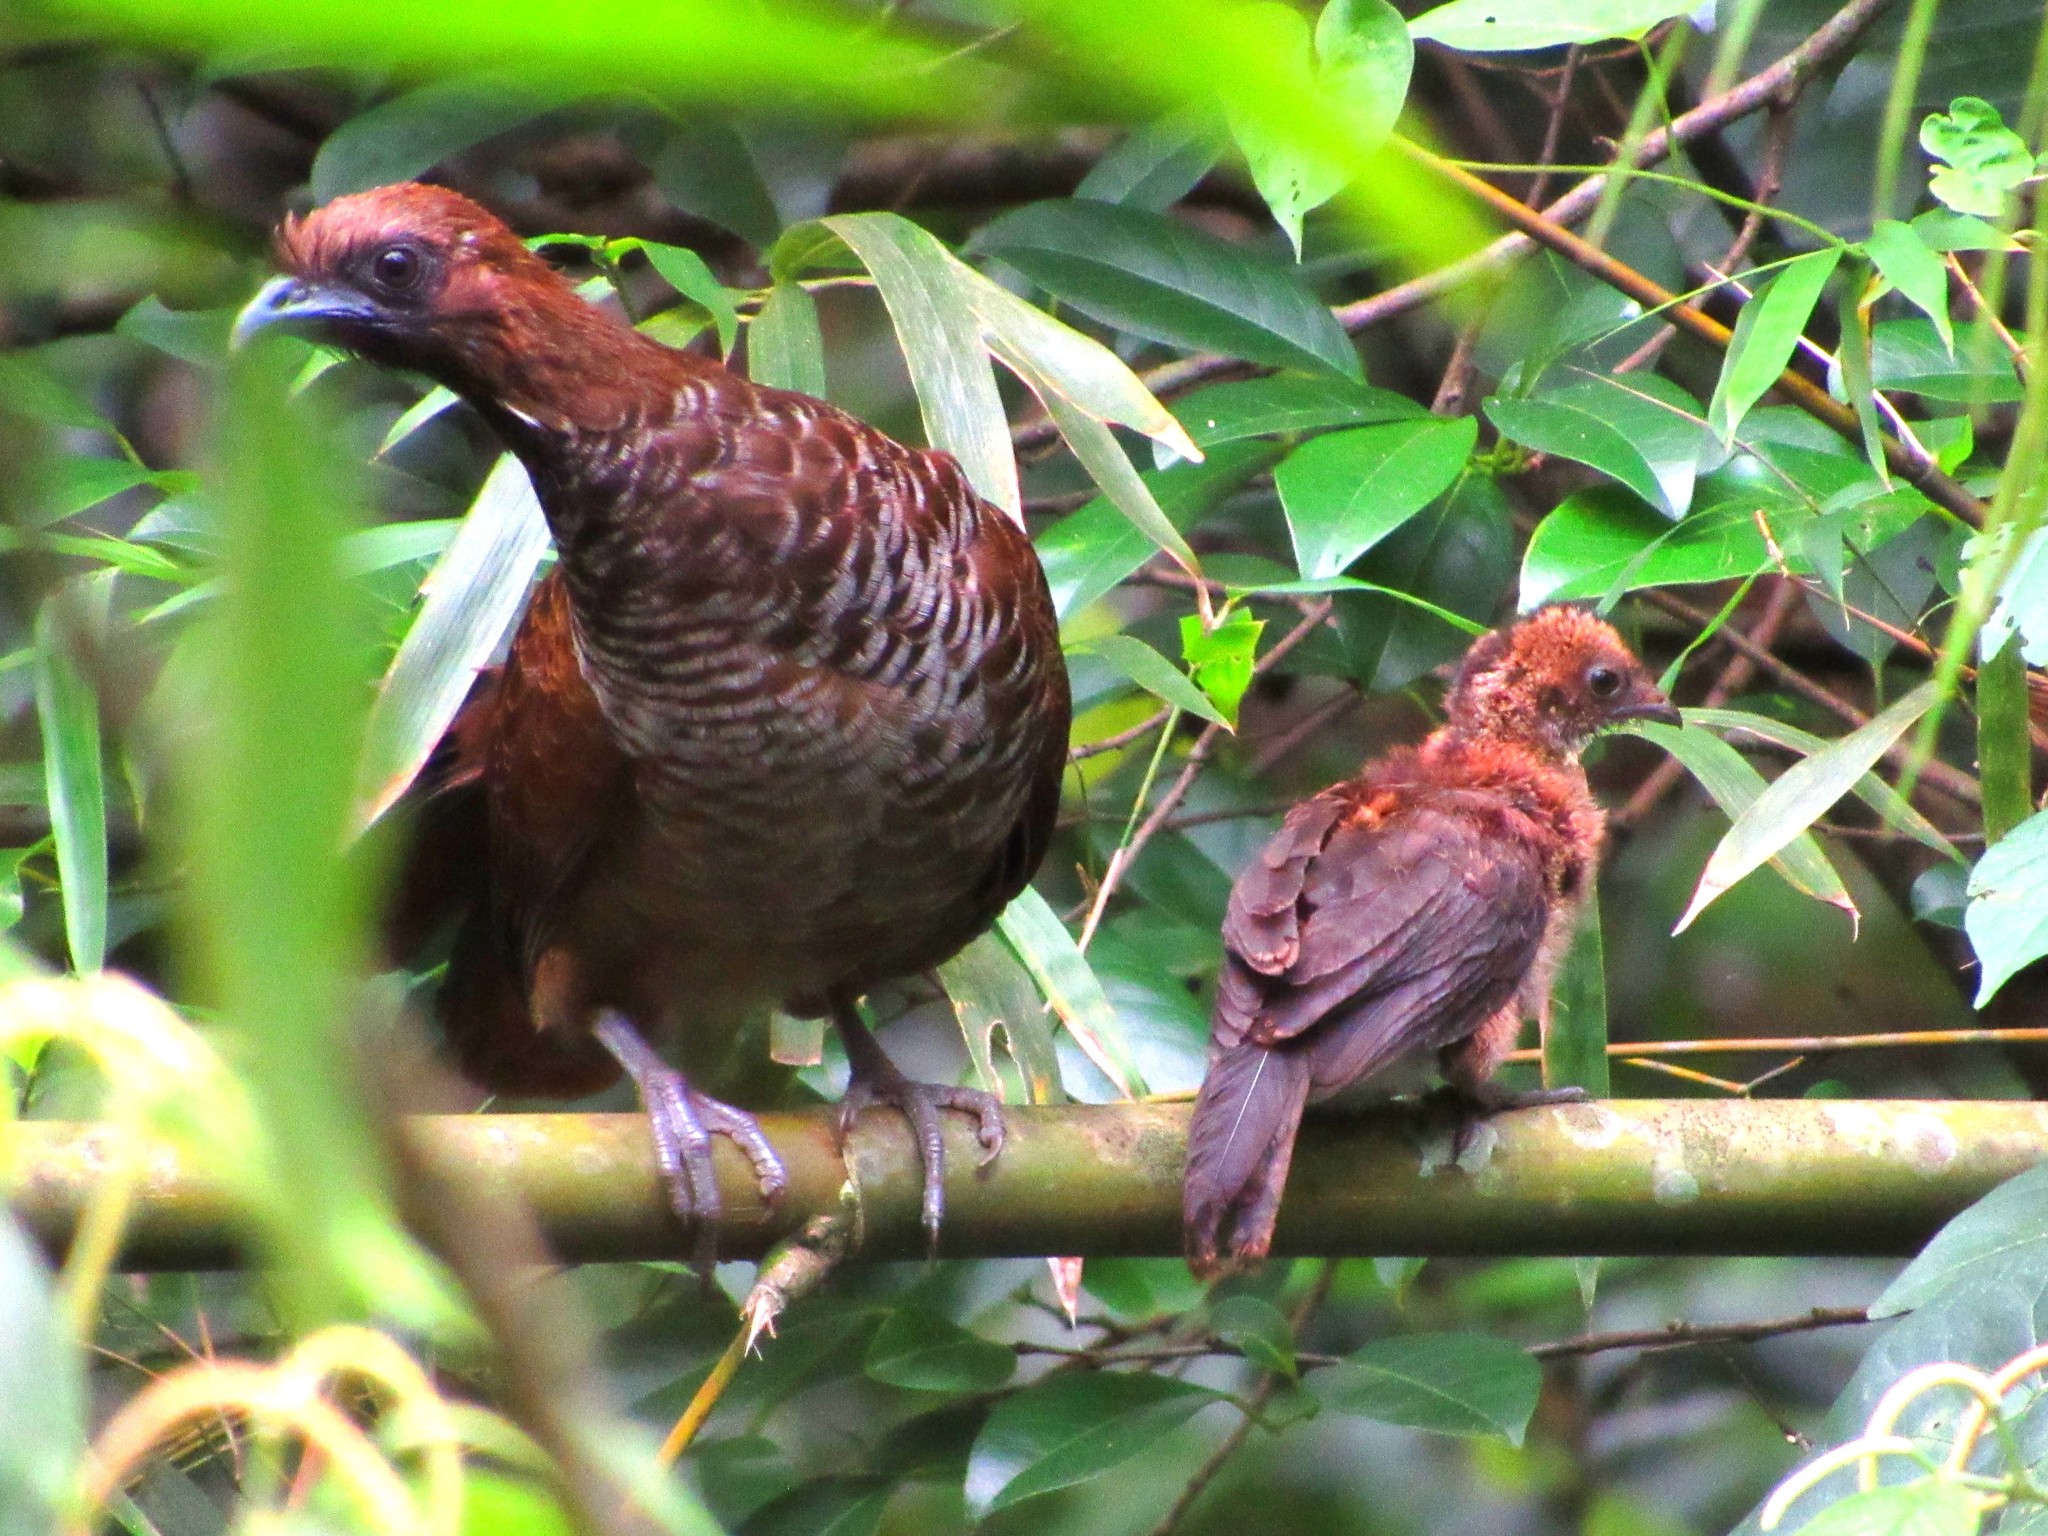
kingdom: Animalia
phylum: Chordata
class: Aves
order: Galliformes
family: Cracidae
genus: Ortalis
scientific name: Ortalis squamata
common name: Scaled chachalaca
